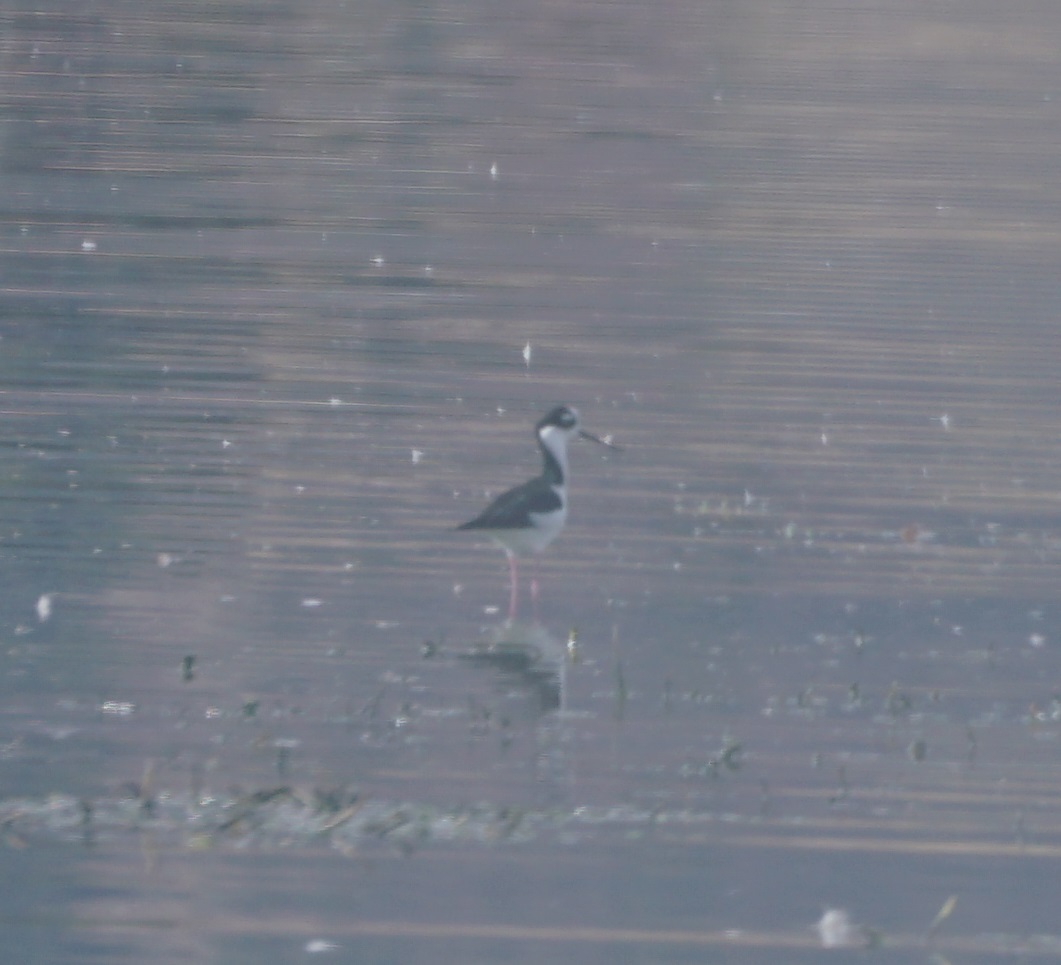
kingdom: Animalia
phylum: Chordata
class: Aves
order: Charadriiformes
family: Recurvirostridae
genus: Himantopus
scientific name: Himantopus mexicanus
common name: Black-necked stilt
